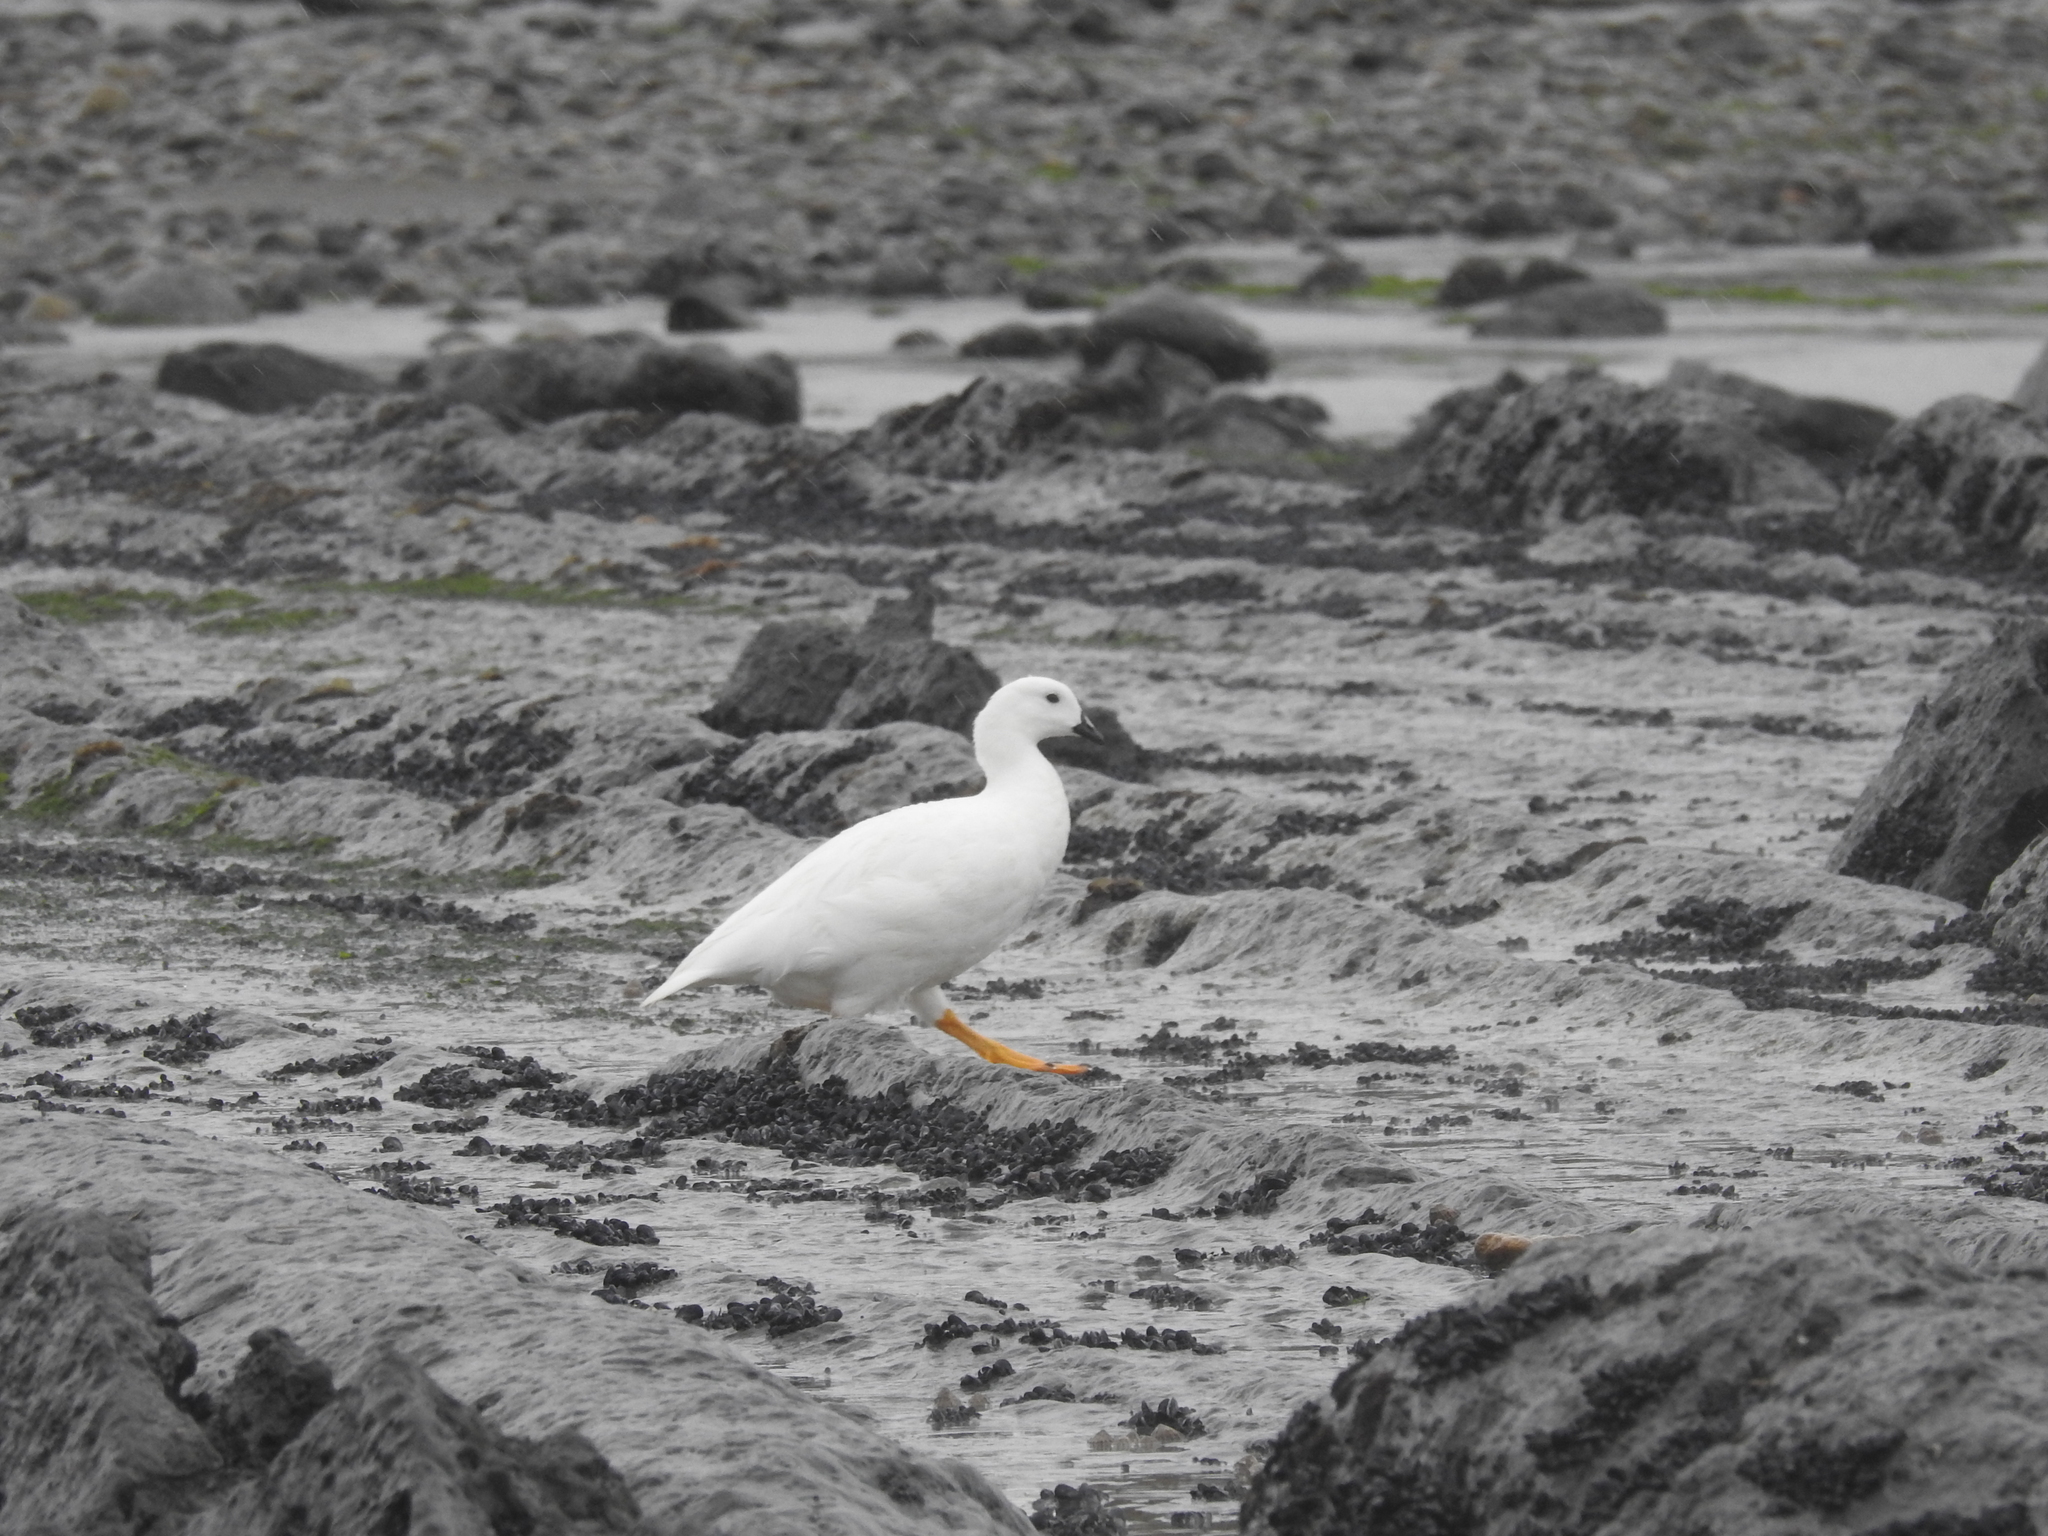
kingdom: Animalia
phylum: Chordata
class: Aves
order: Anseriformes
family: Anatidae
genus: Chloephaga
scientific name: Chloephaga hybrida
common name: Kelp goose
